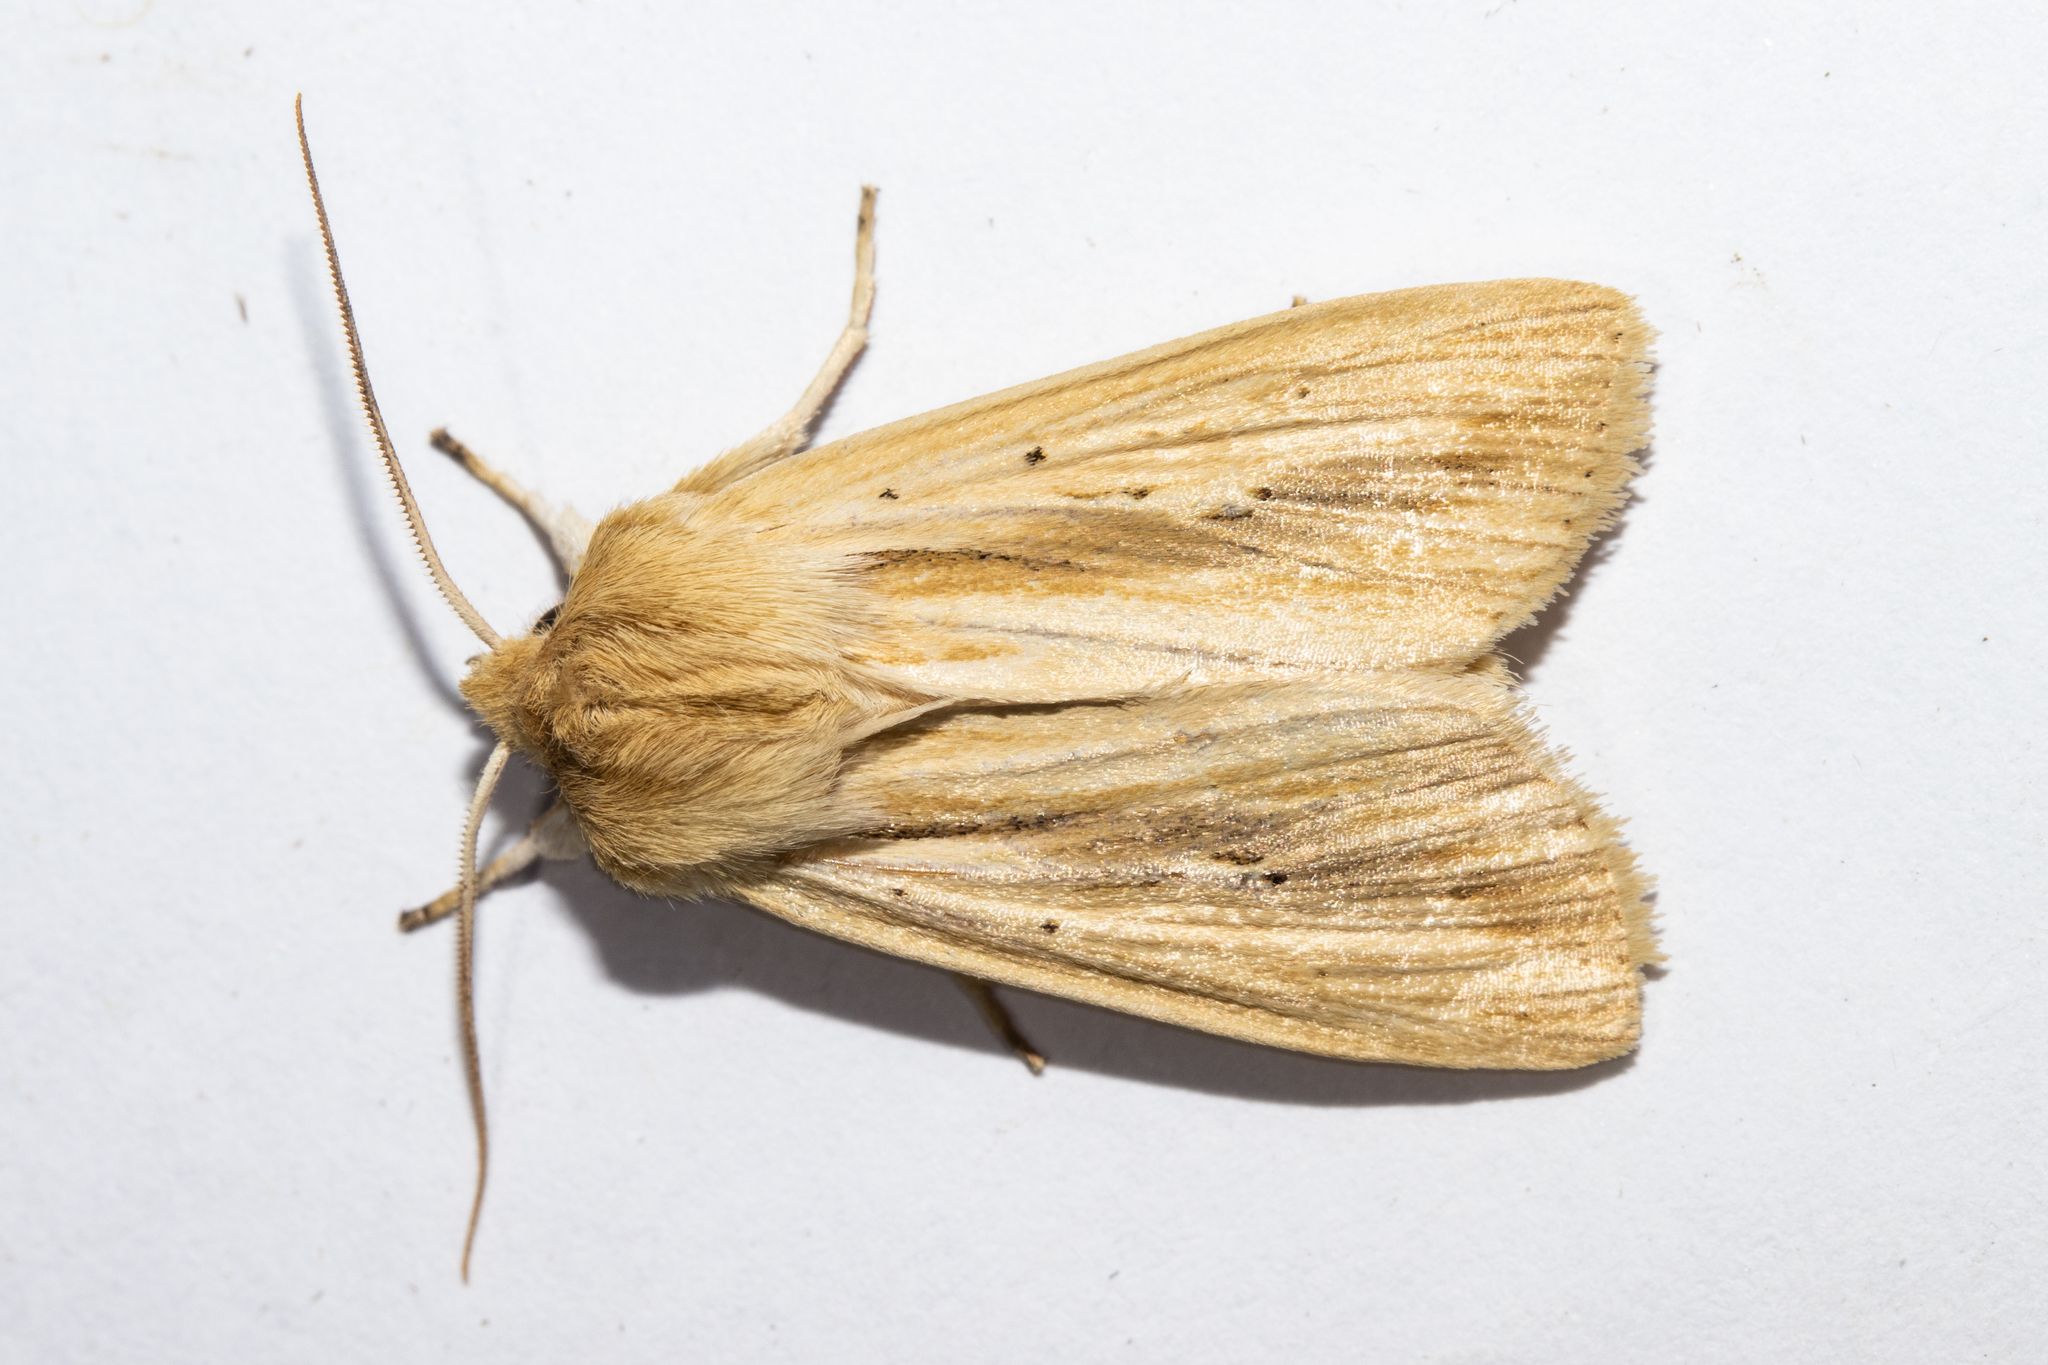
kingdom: Animalia
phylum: Arthropoda
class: Insecta
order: Lepidoptera
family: Noctuidae
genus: Ichneutica
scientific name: Ichneutica semivittata
